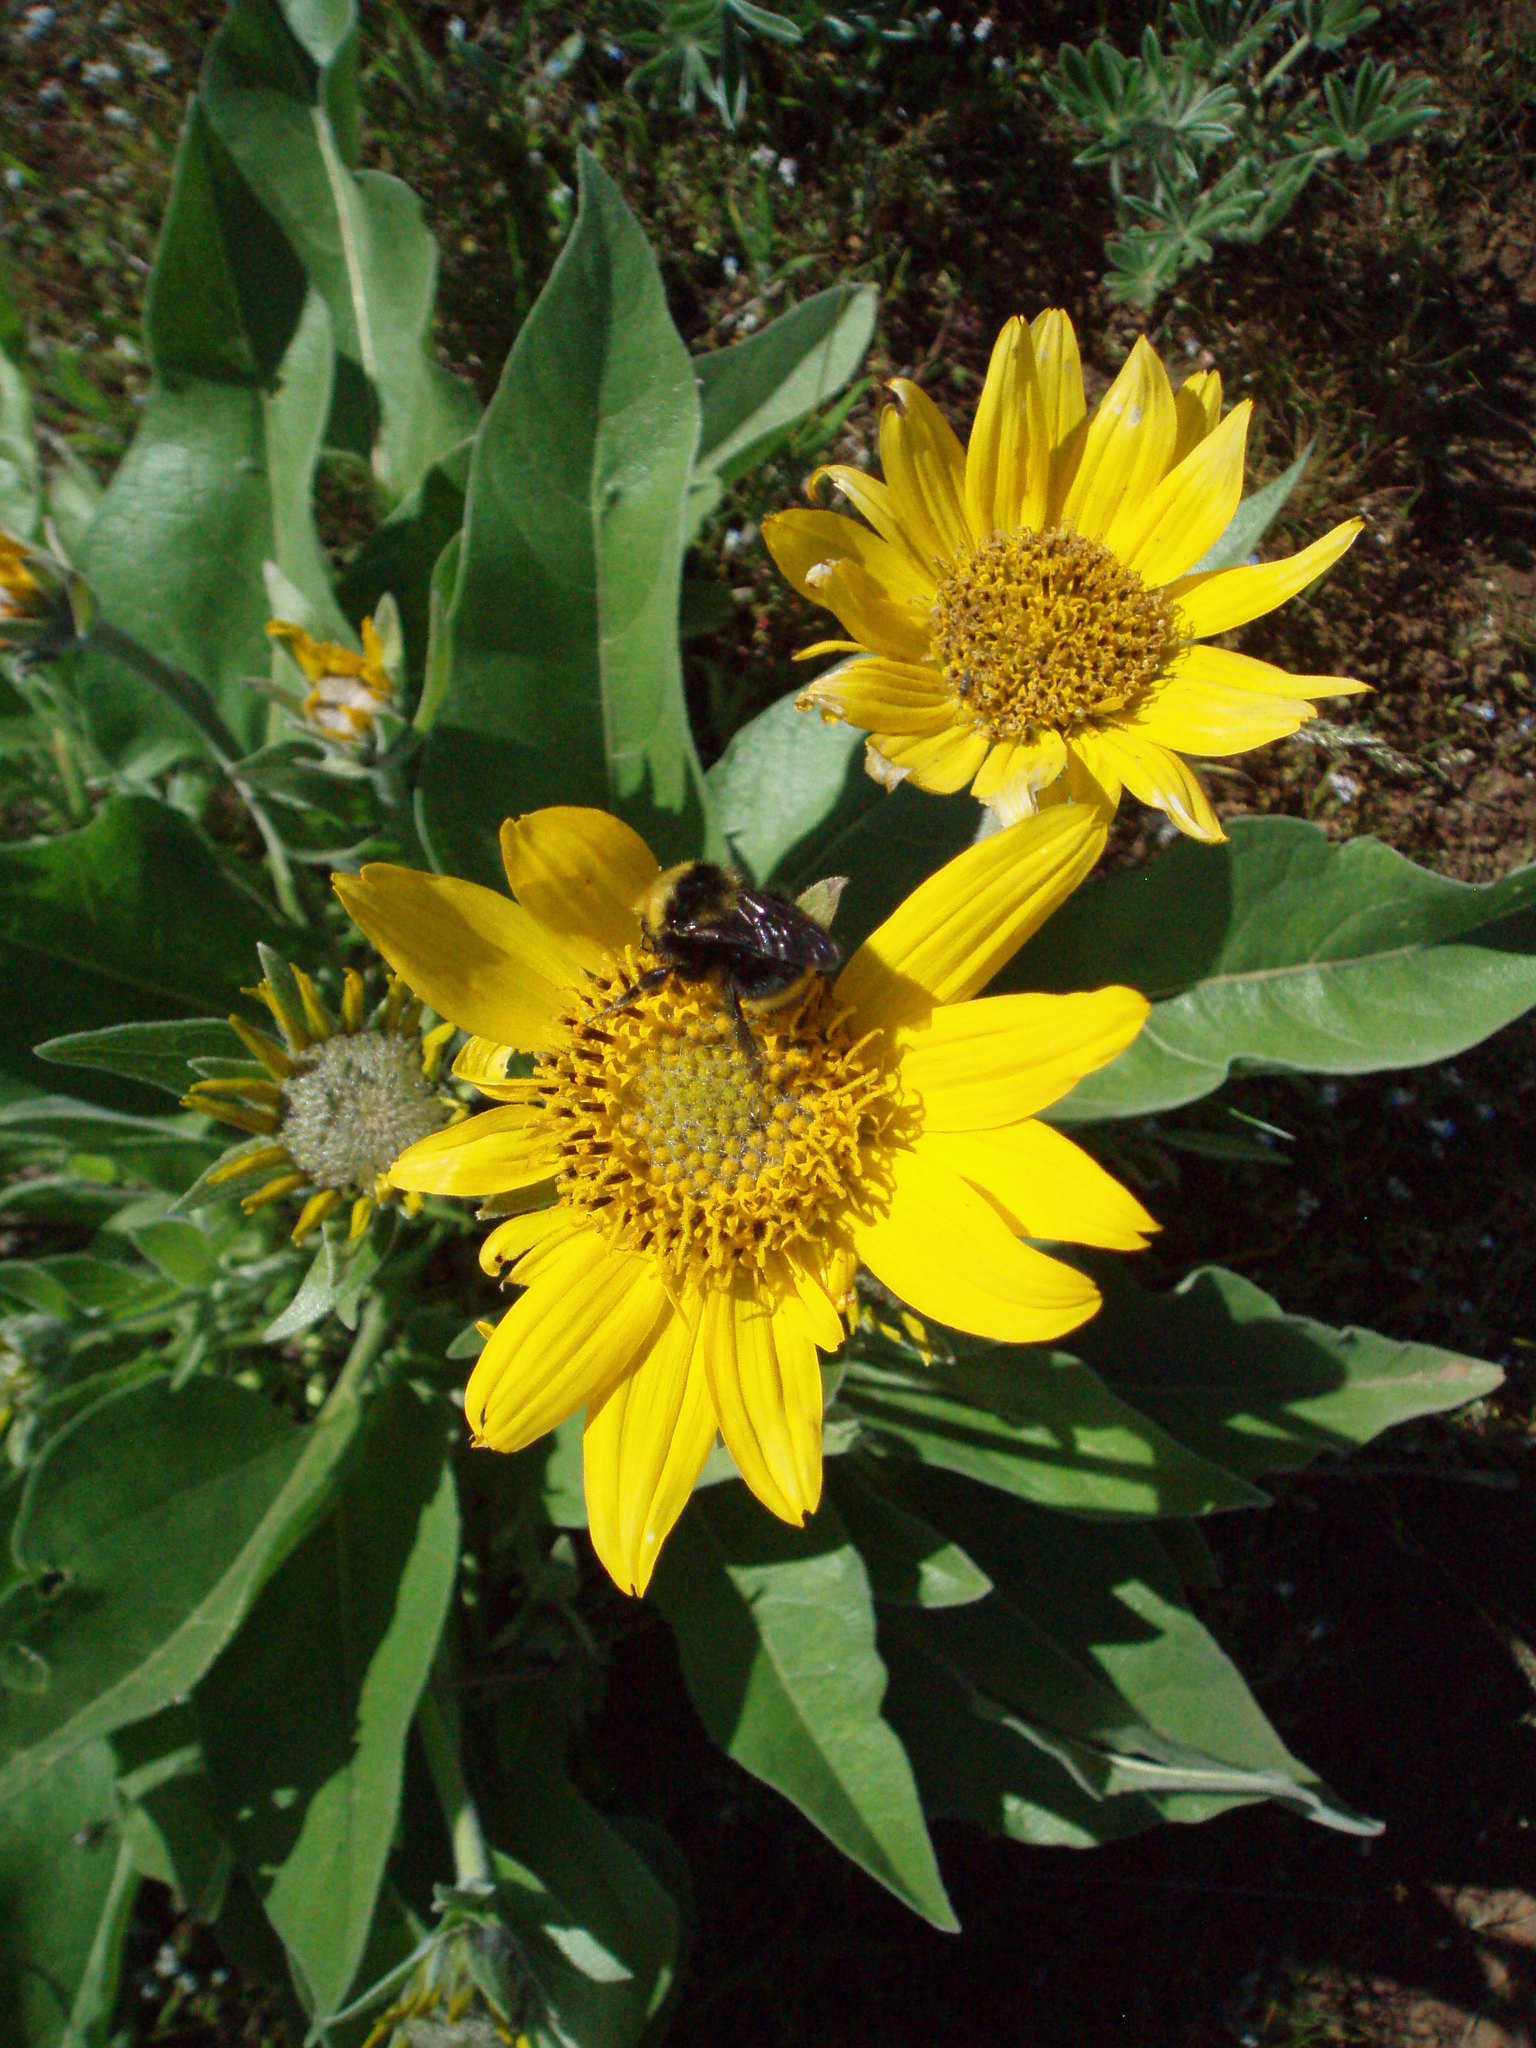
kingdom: Plantae
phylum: Tracheophyta
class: Magnoliopsida
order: Asterales
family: Asteraceae
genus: Balsamorhiza
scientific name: Balsamorhiza deltoidea
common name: Deltoid balsamroot
